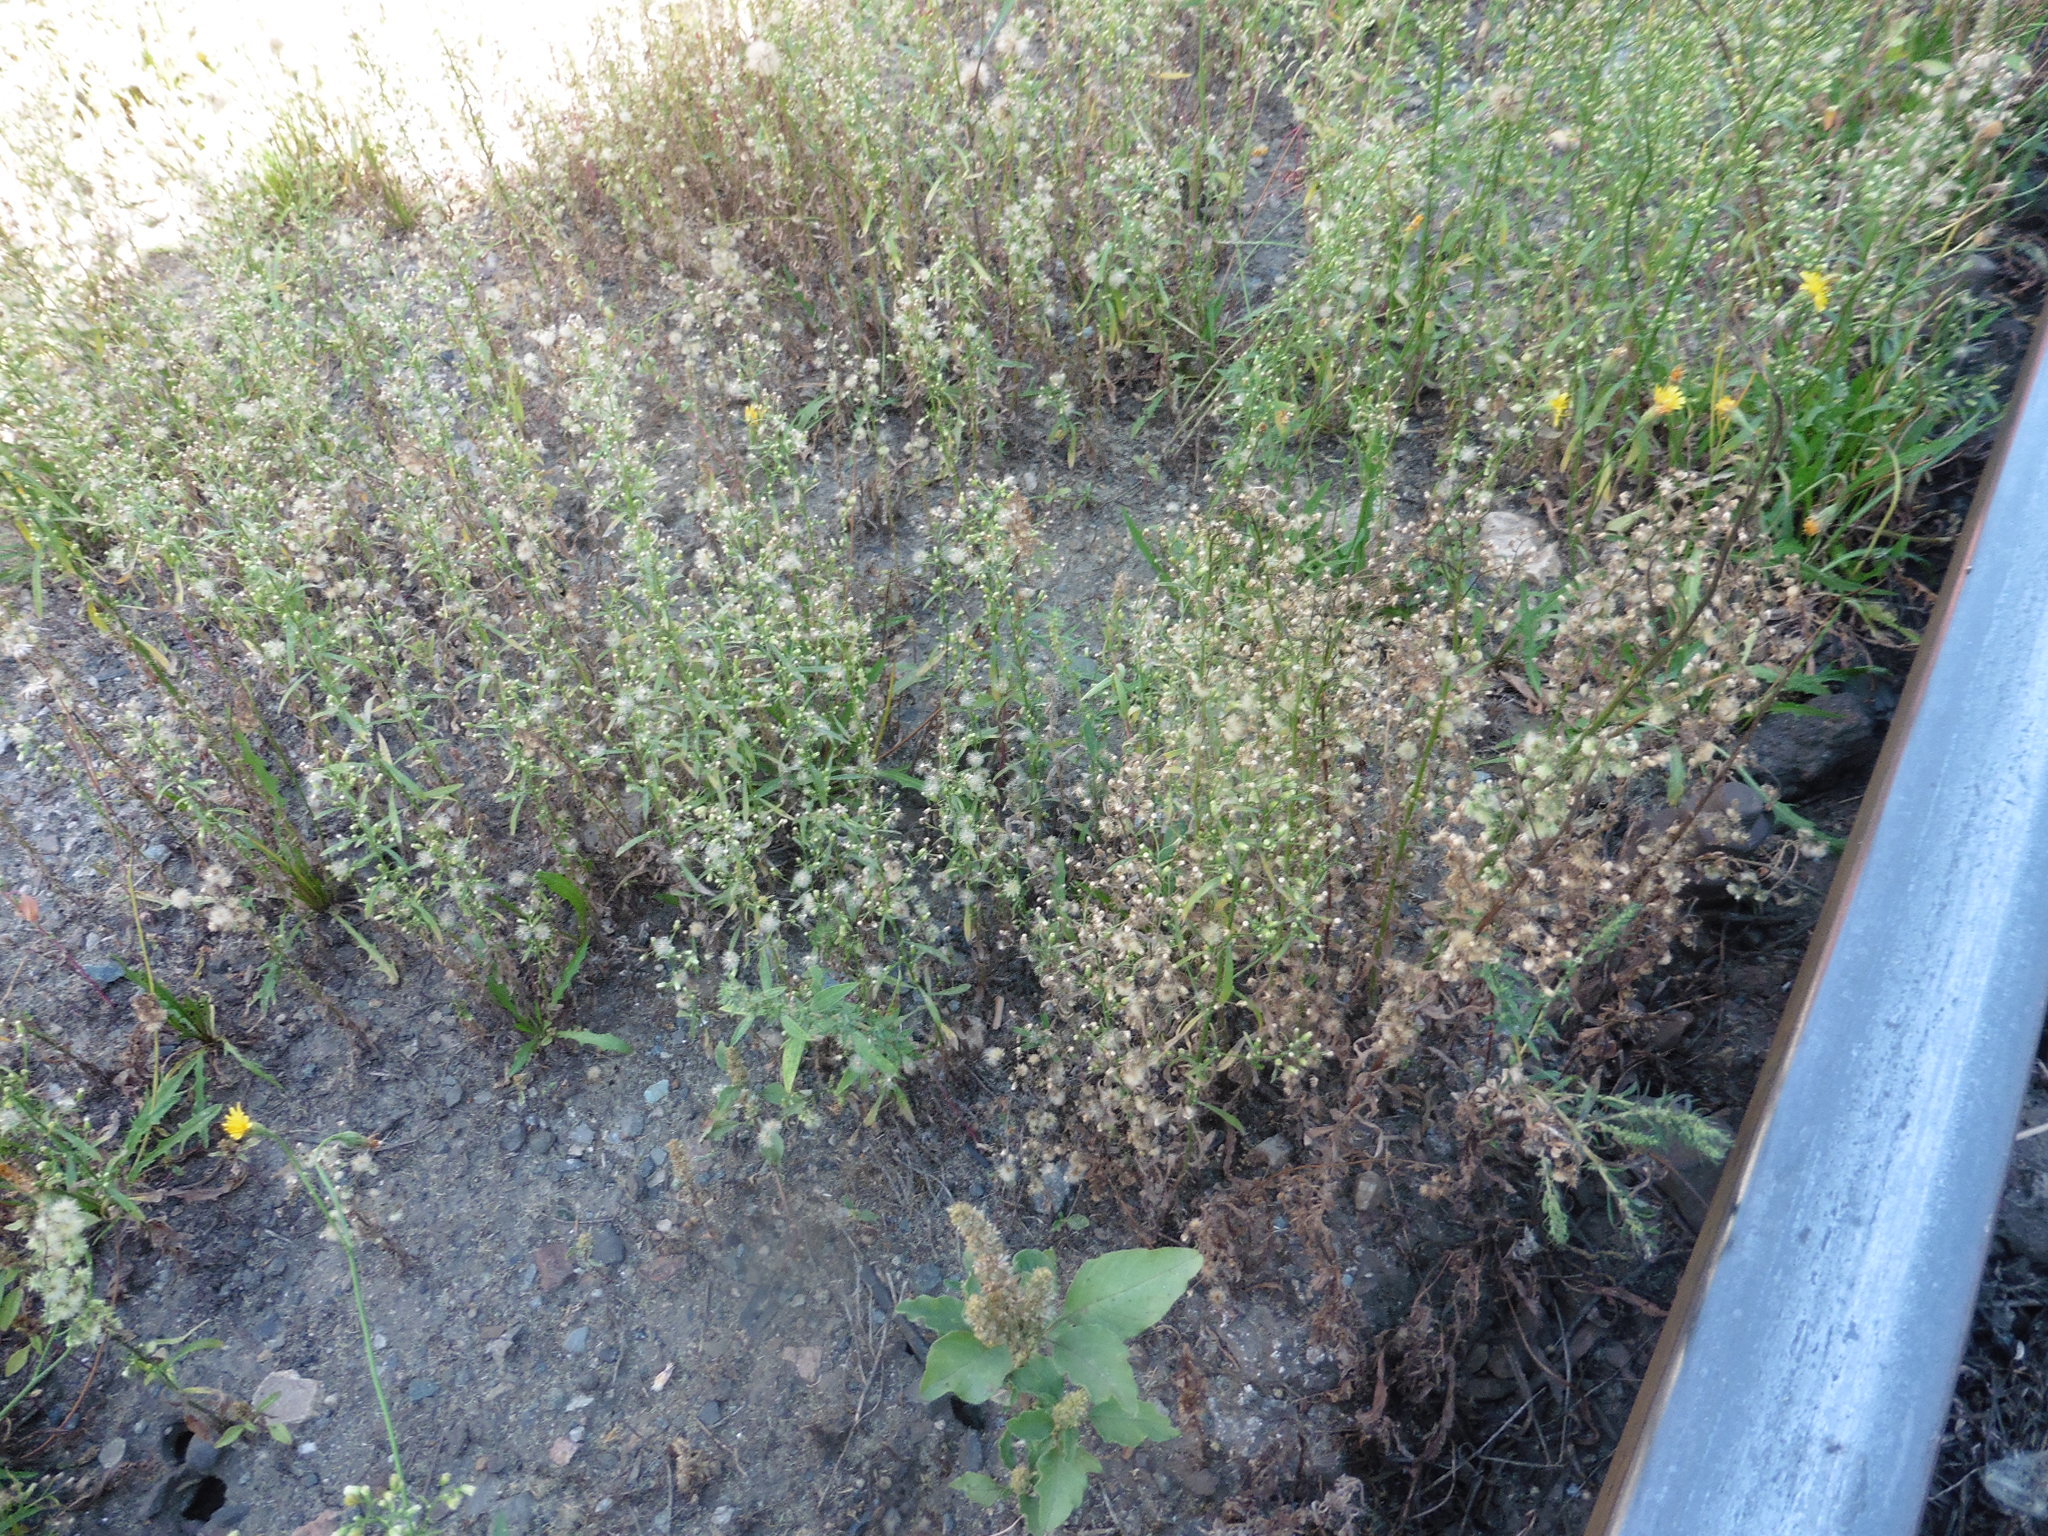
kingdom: Plantae
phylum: Tracheophyta
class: Magnoliopsida
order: Asterales
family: Asteraceae
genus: Erigeron
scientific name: Erigeron canadensis
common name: Canadian fleabane
